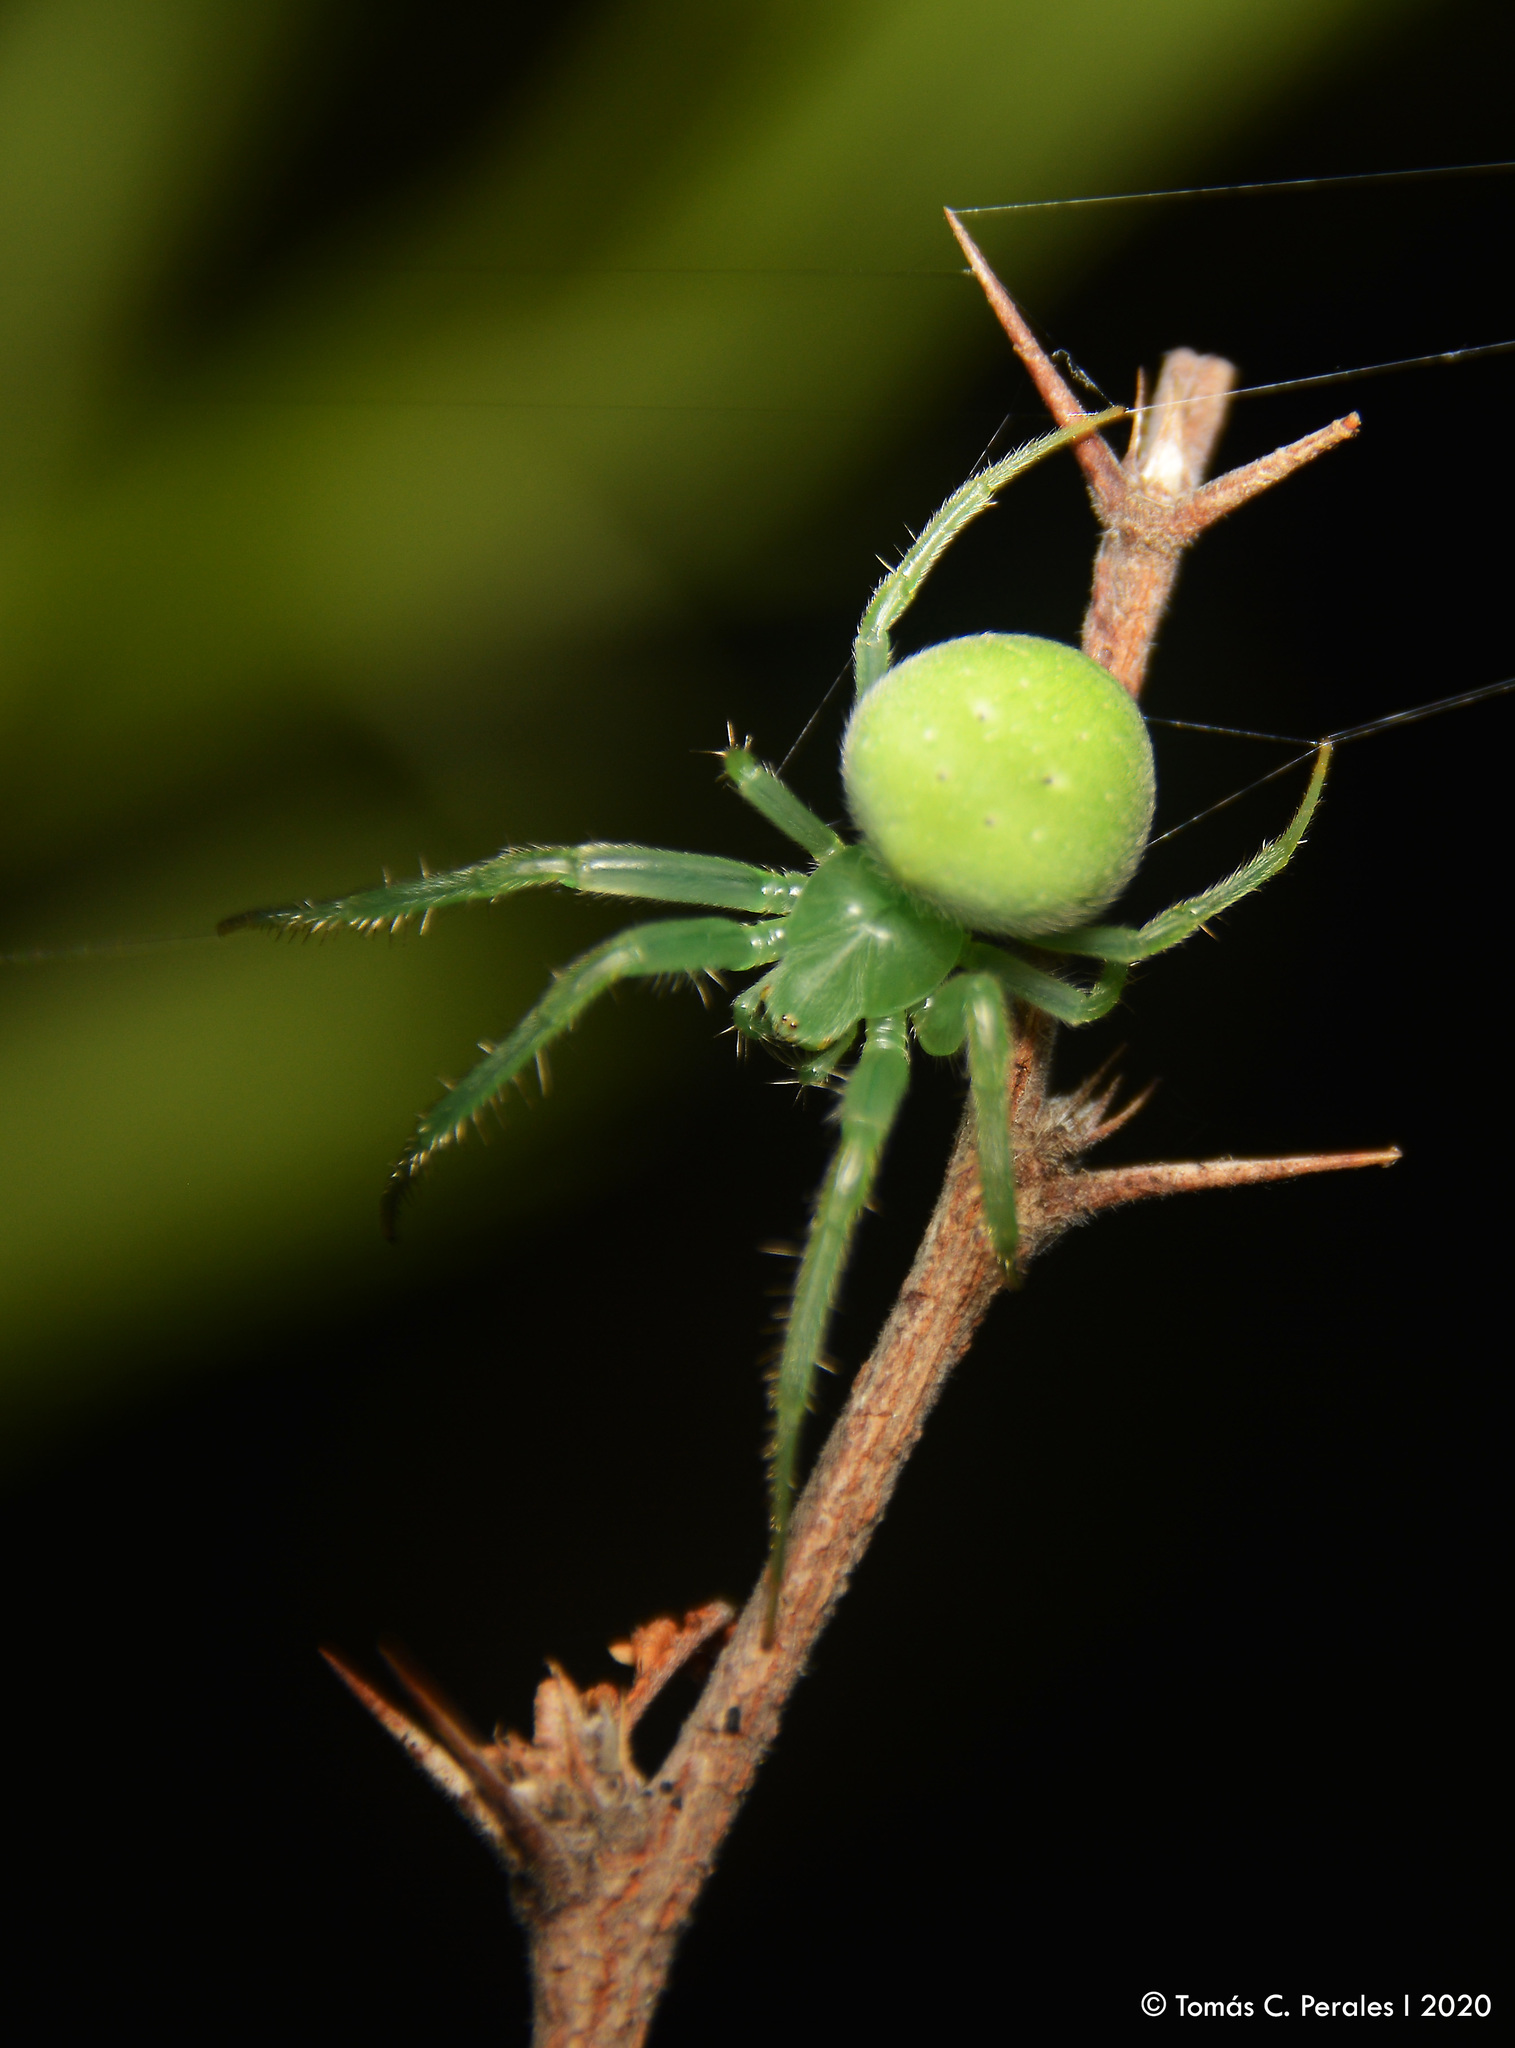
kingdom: Animalia
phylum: Arthropoda
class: Arachnida
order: Araneae
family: Araneidae
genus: Araneus
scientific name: Araneus uniformis
